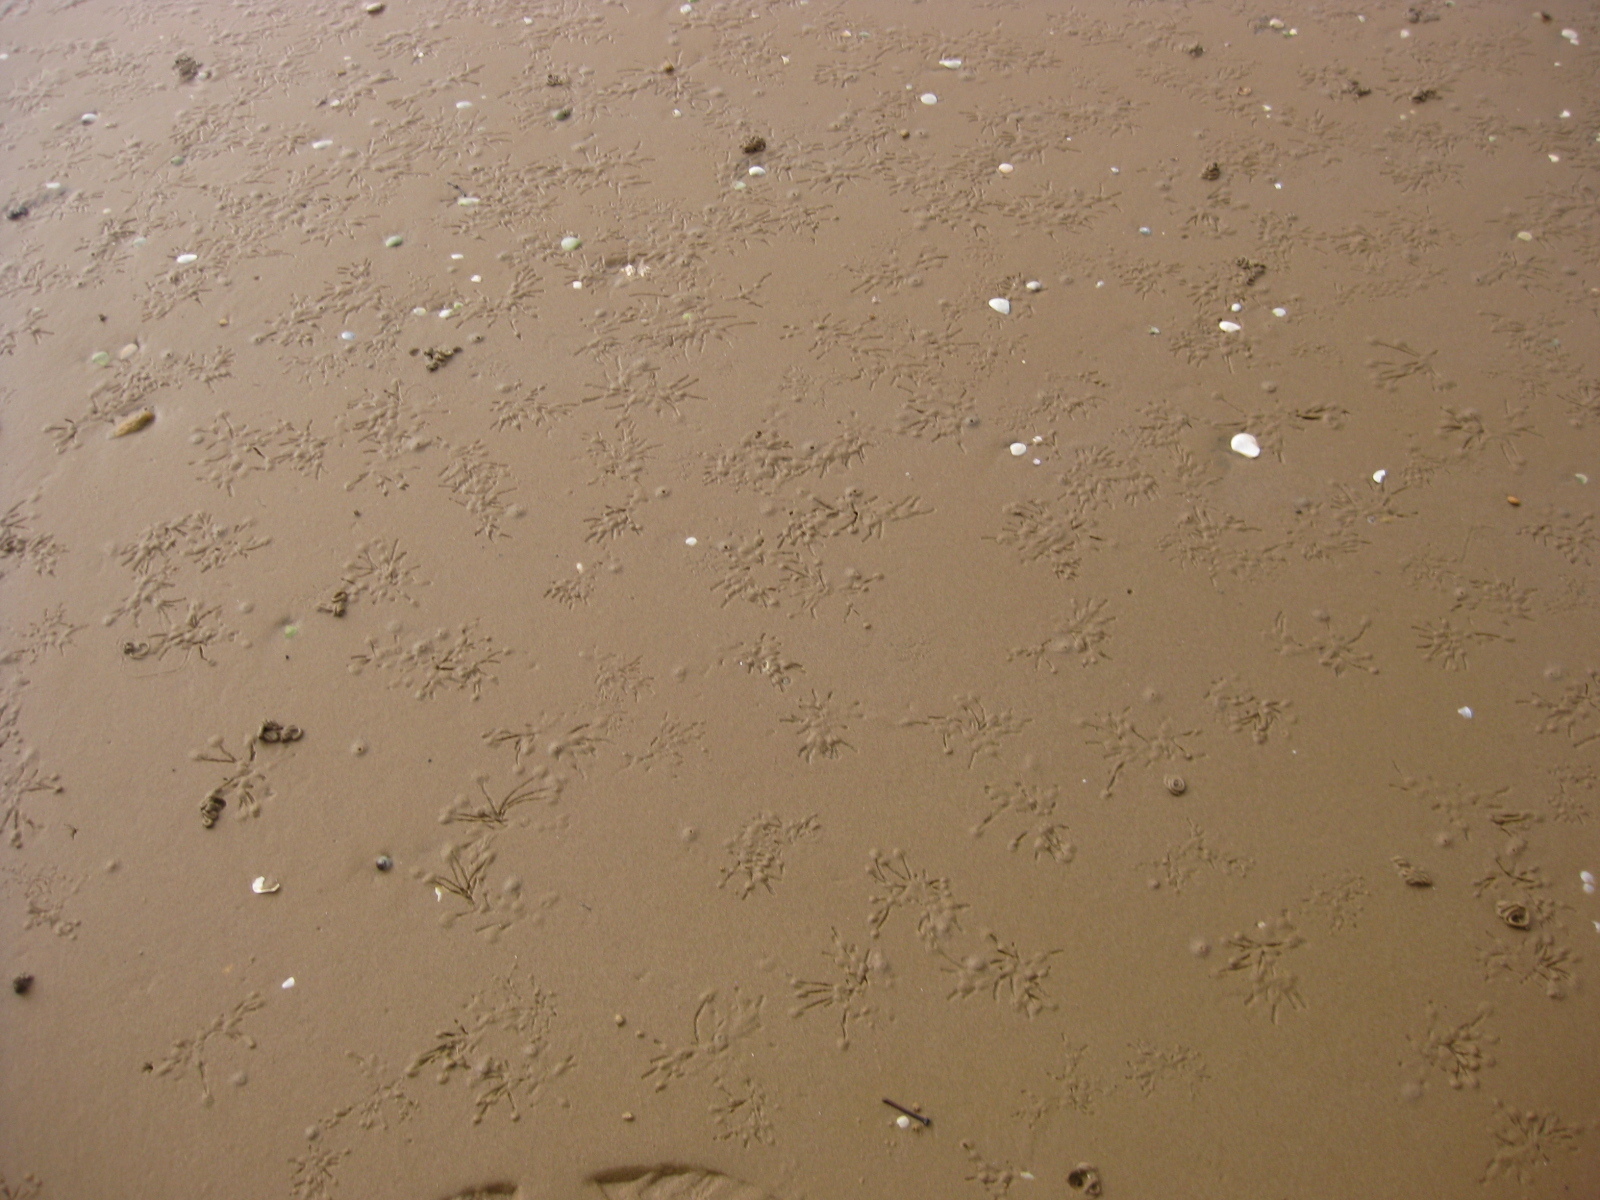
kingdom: Animalia
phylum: Mollusca
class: Bivalvia
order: Cardiida
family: Tellinidae
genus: Macomona
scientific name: Macomona liliana
